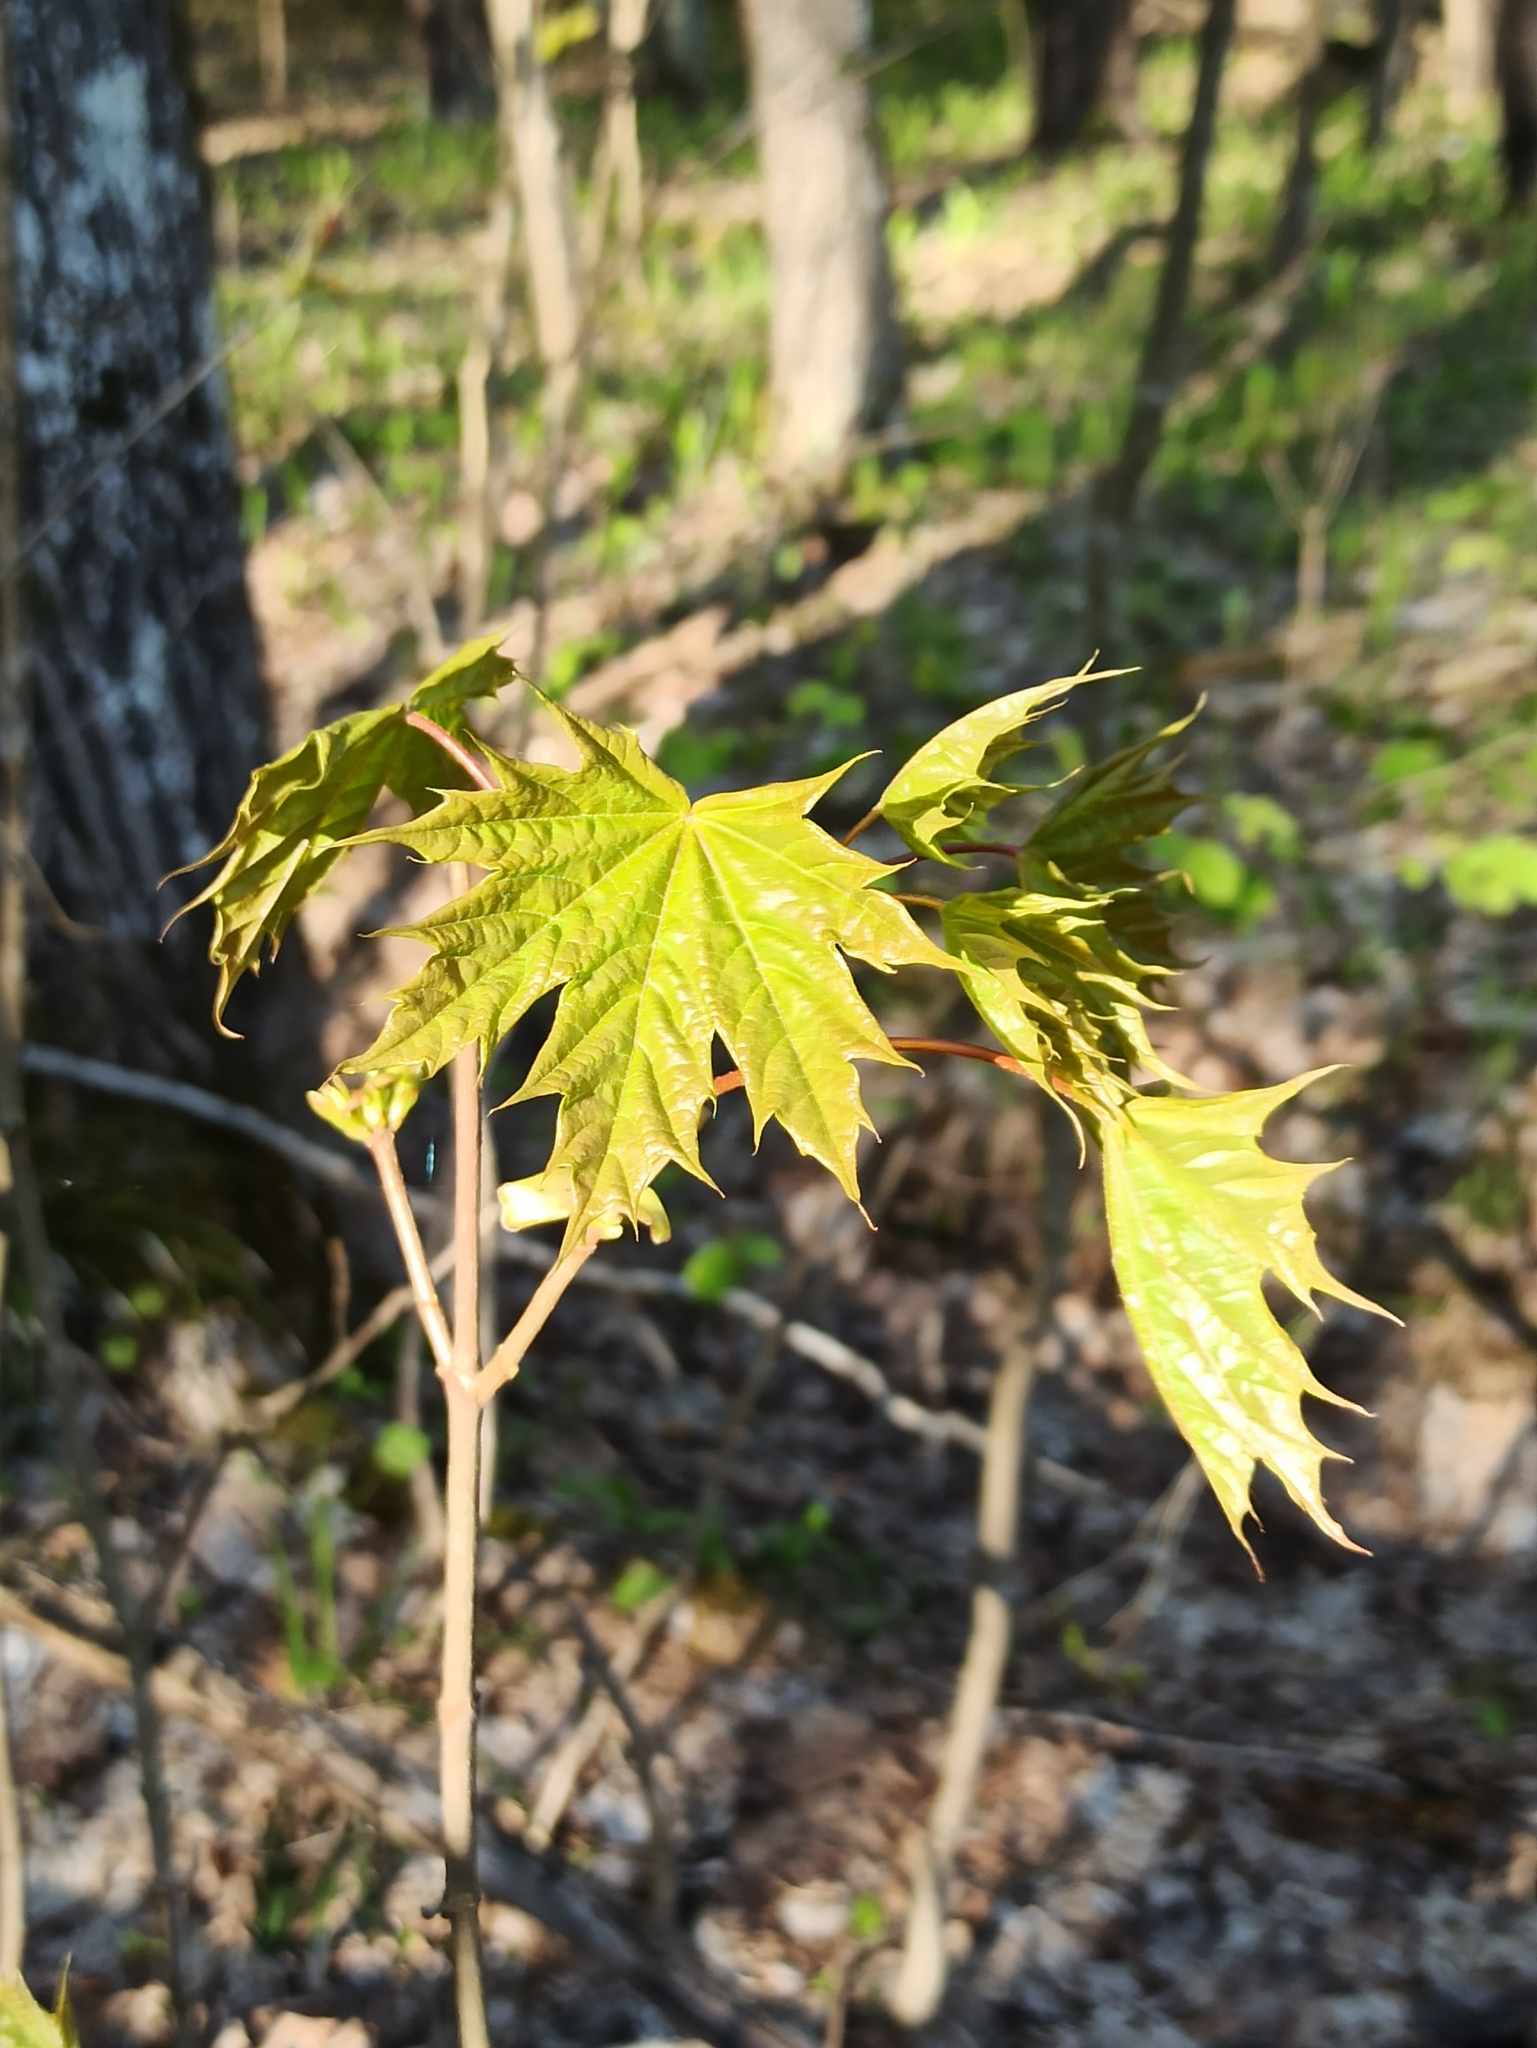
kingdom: Plantae
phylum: Tracheophyta
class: Magnoliopsida
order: Sapindales
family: Sapindaceae
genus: Acer
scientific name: Acer platanoides
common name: Norway maple
